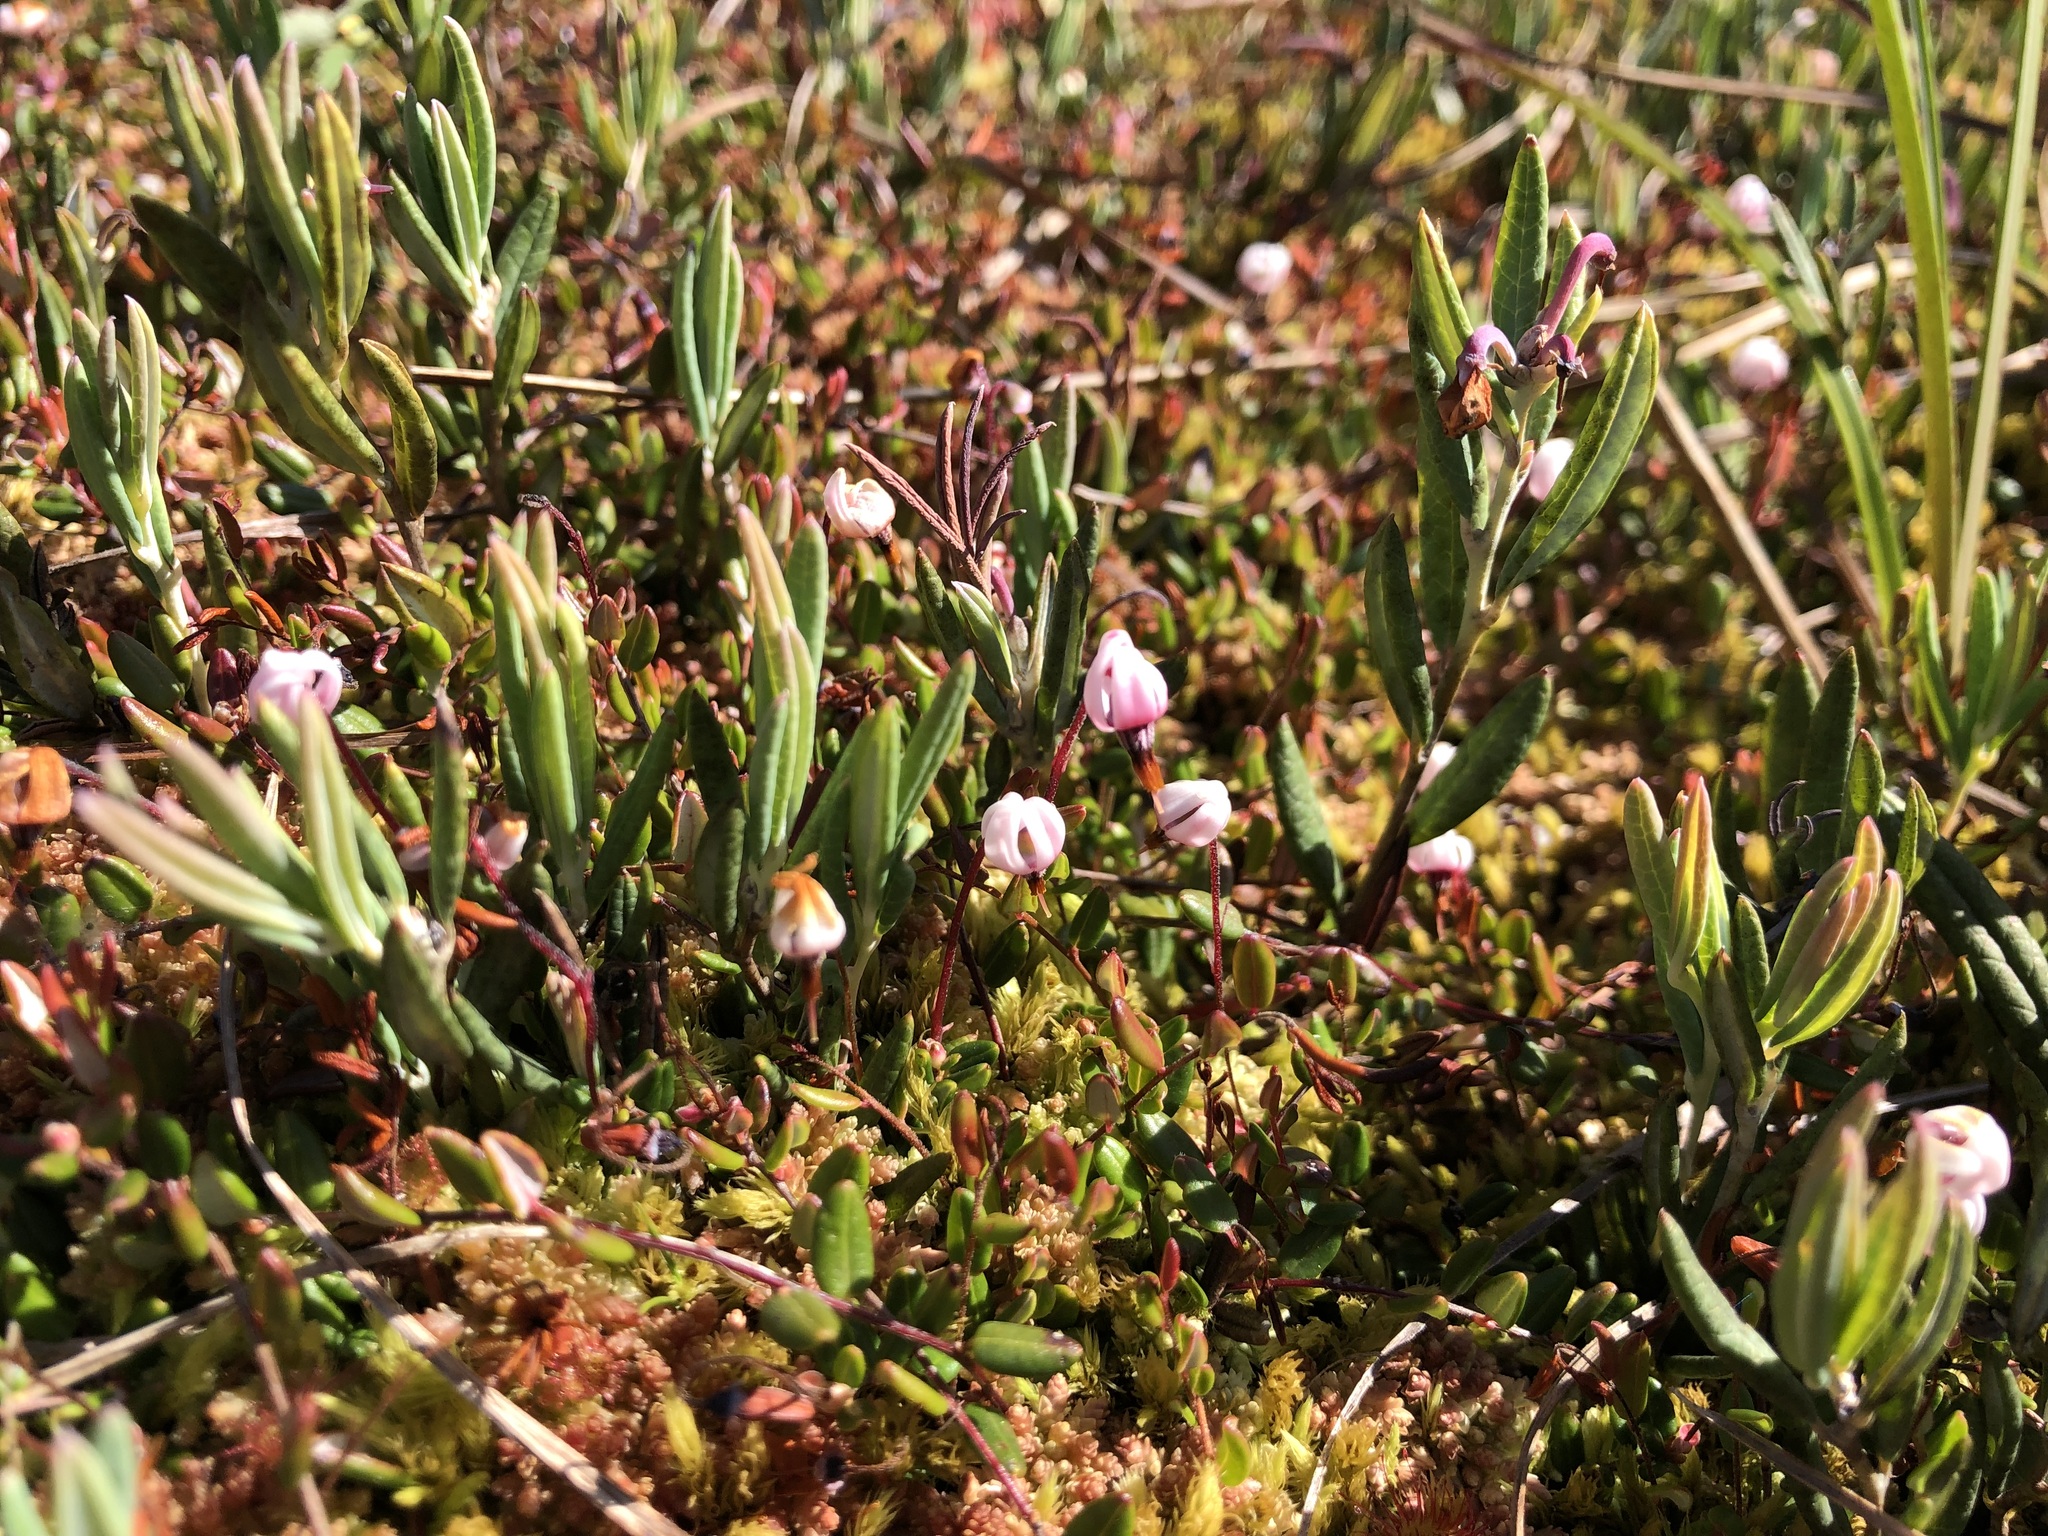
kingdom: Plantae
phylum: Tracheophyta
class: Magnoliopsida
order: Ericales
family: Ericaceae
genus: Vaccinium
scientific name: Vaccinium oxycoccos
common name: Cranberry
